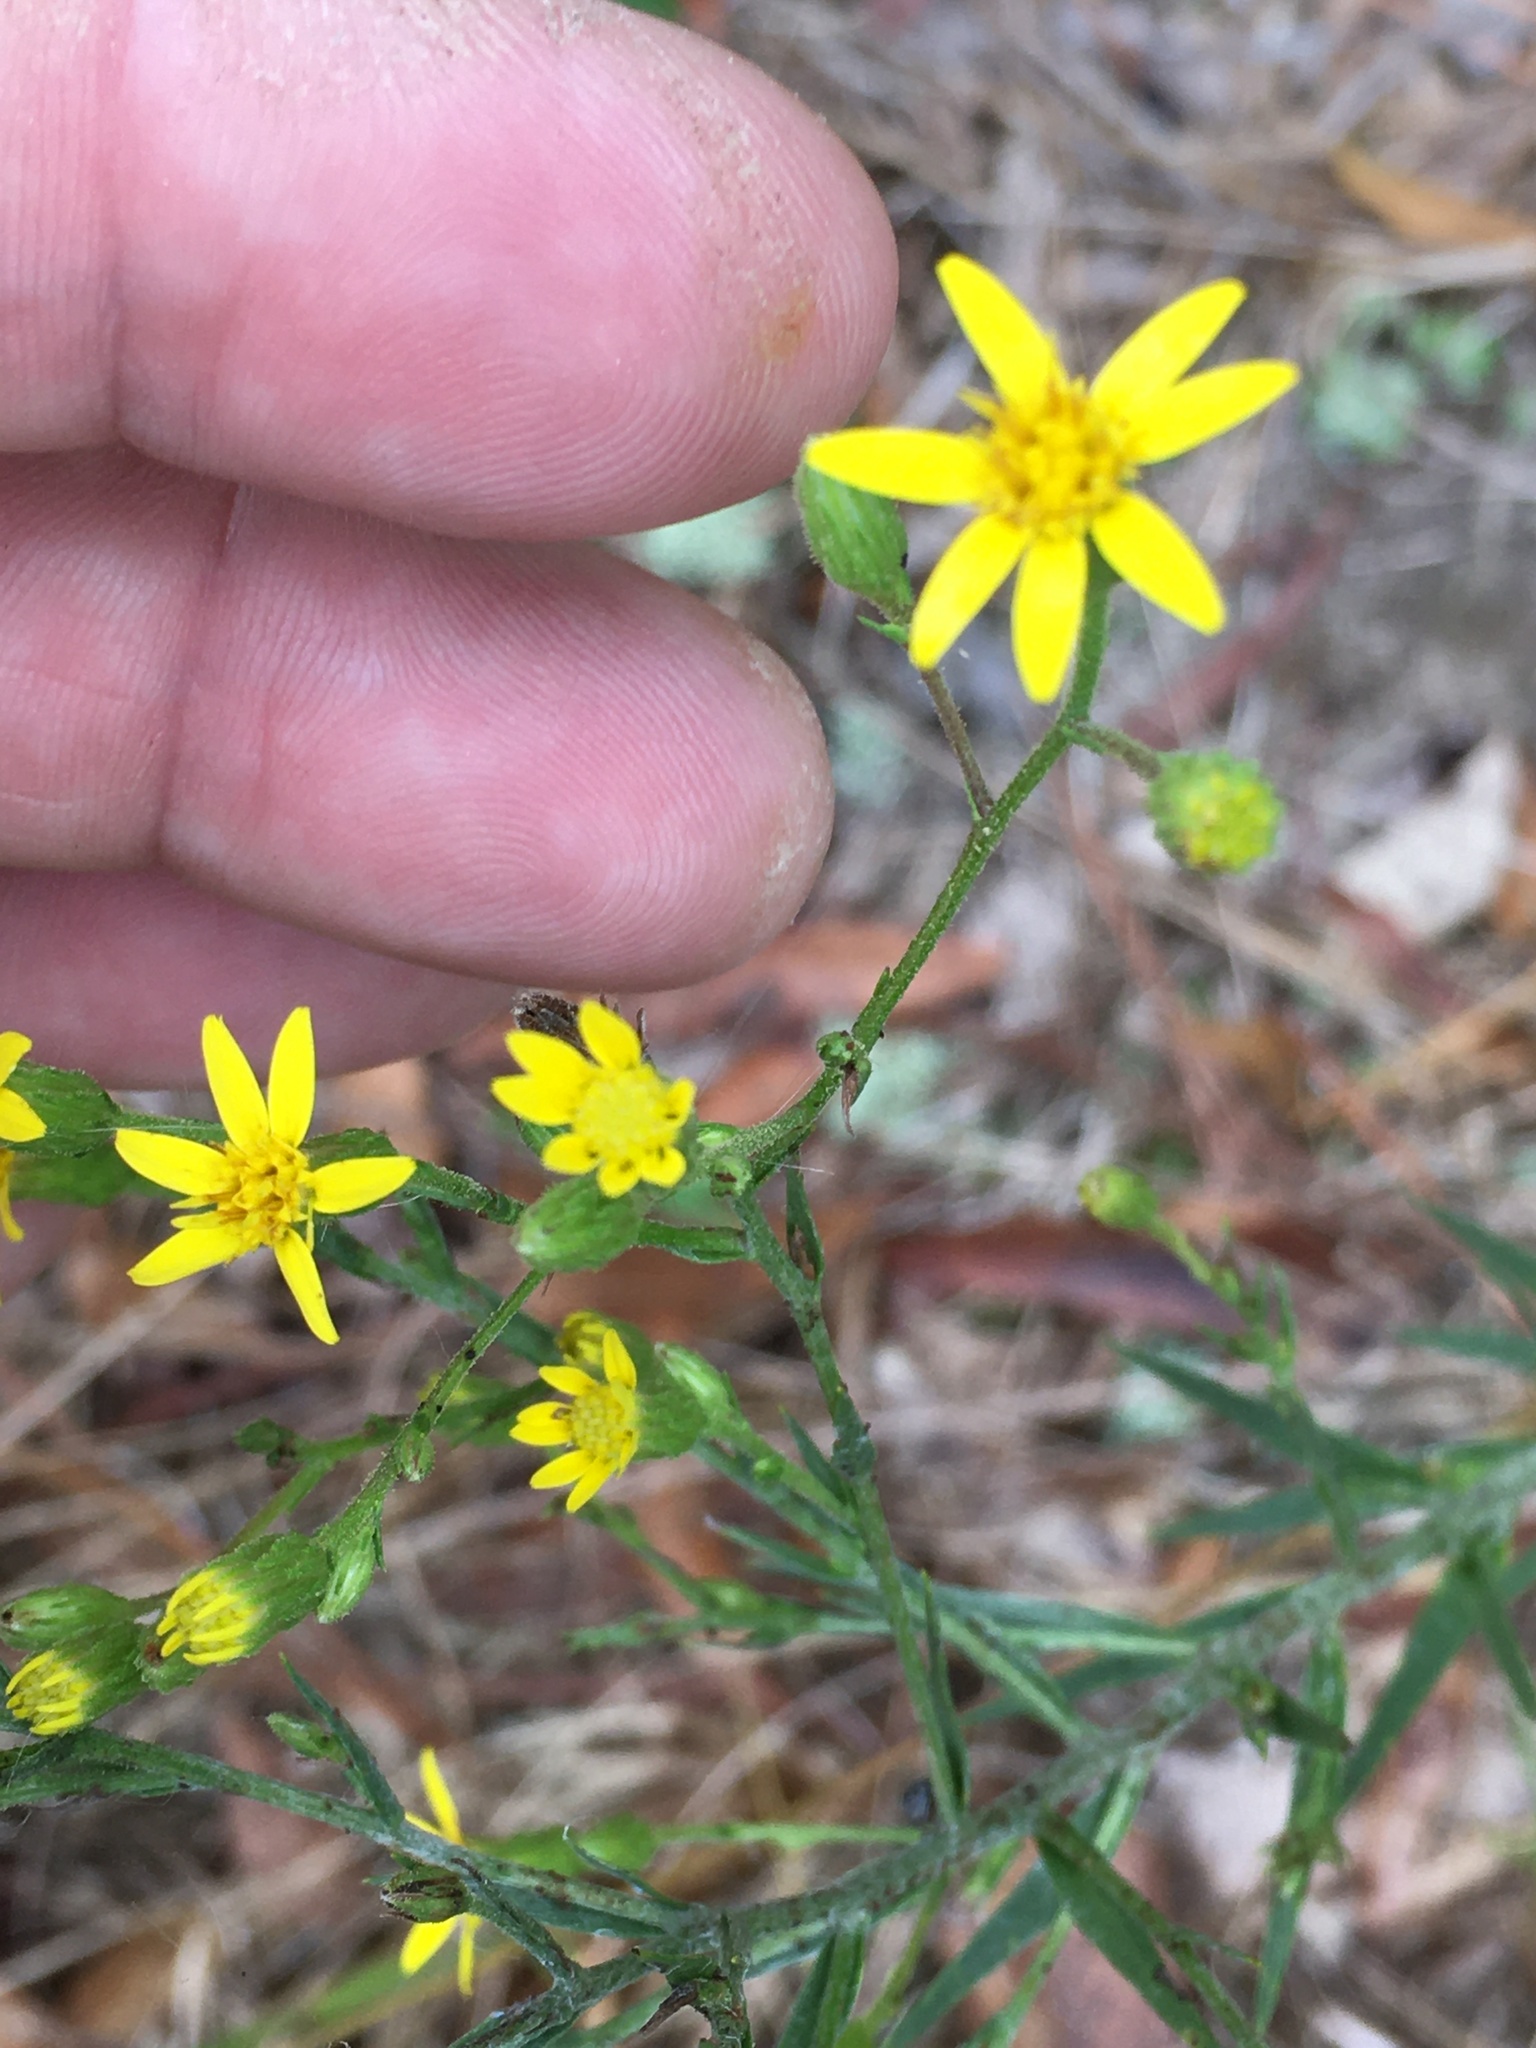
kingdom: Plantae
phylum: Tracheophyta
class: Magnoliopsida
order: Asterales
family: Asteraceae
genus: Pityopsis
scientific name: Pityopsis aspera
